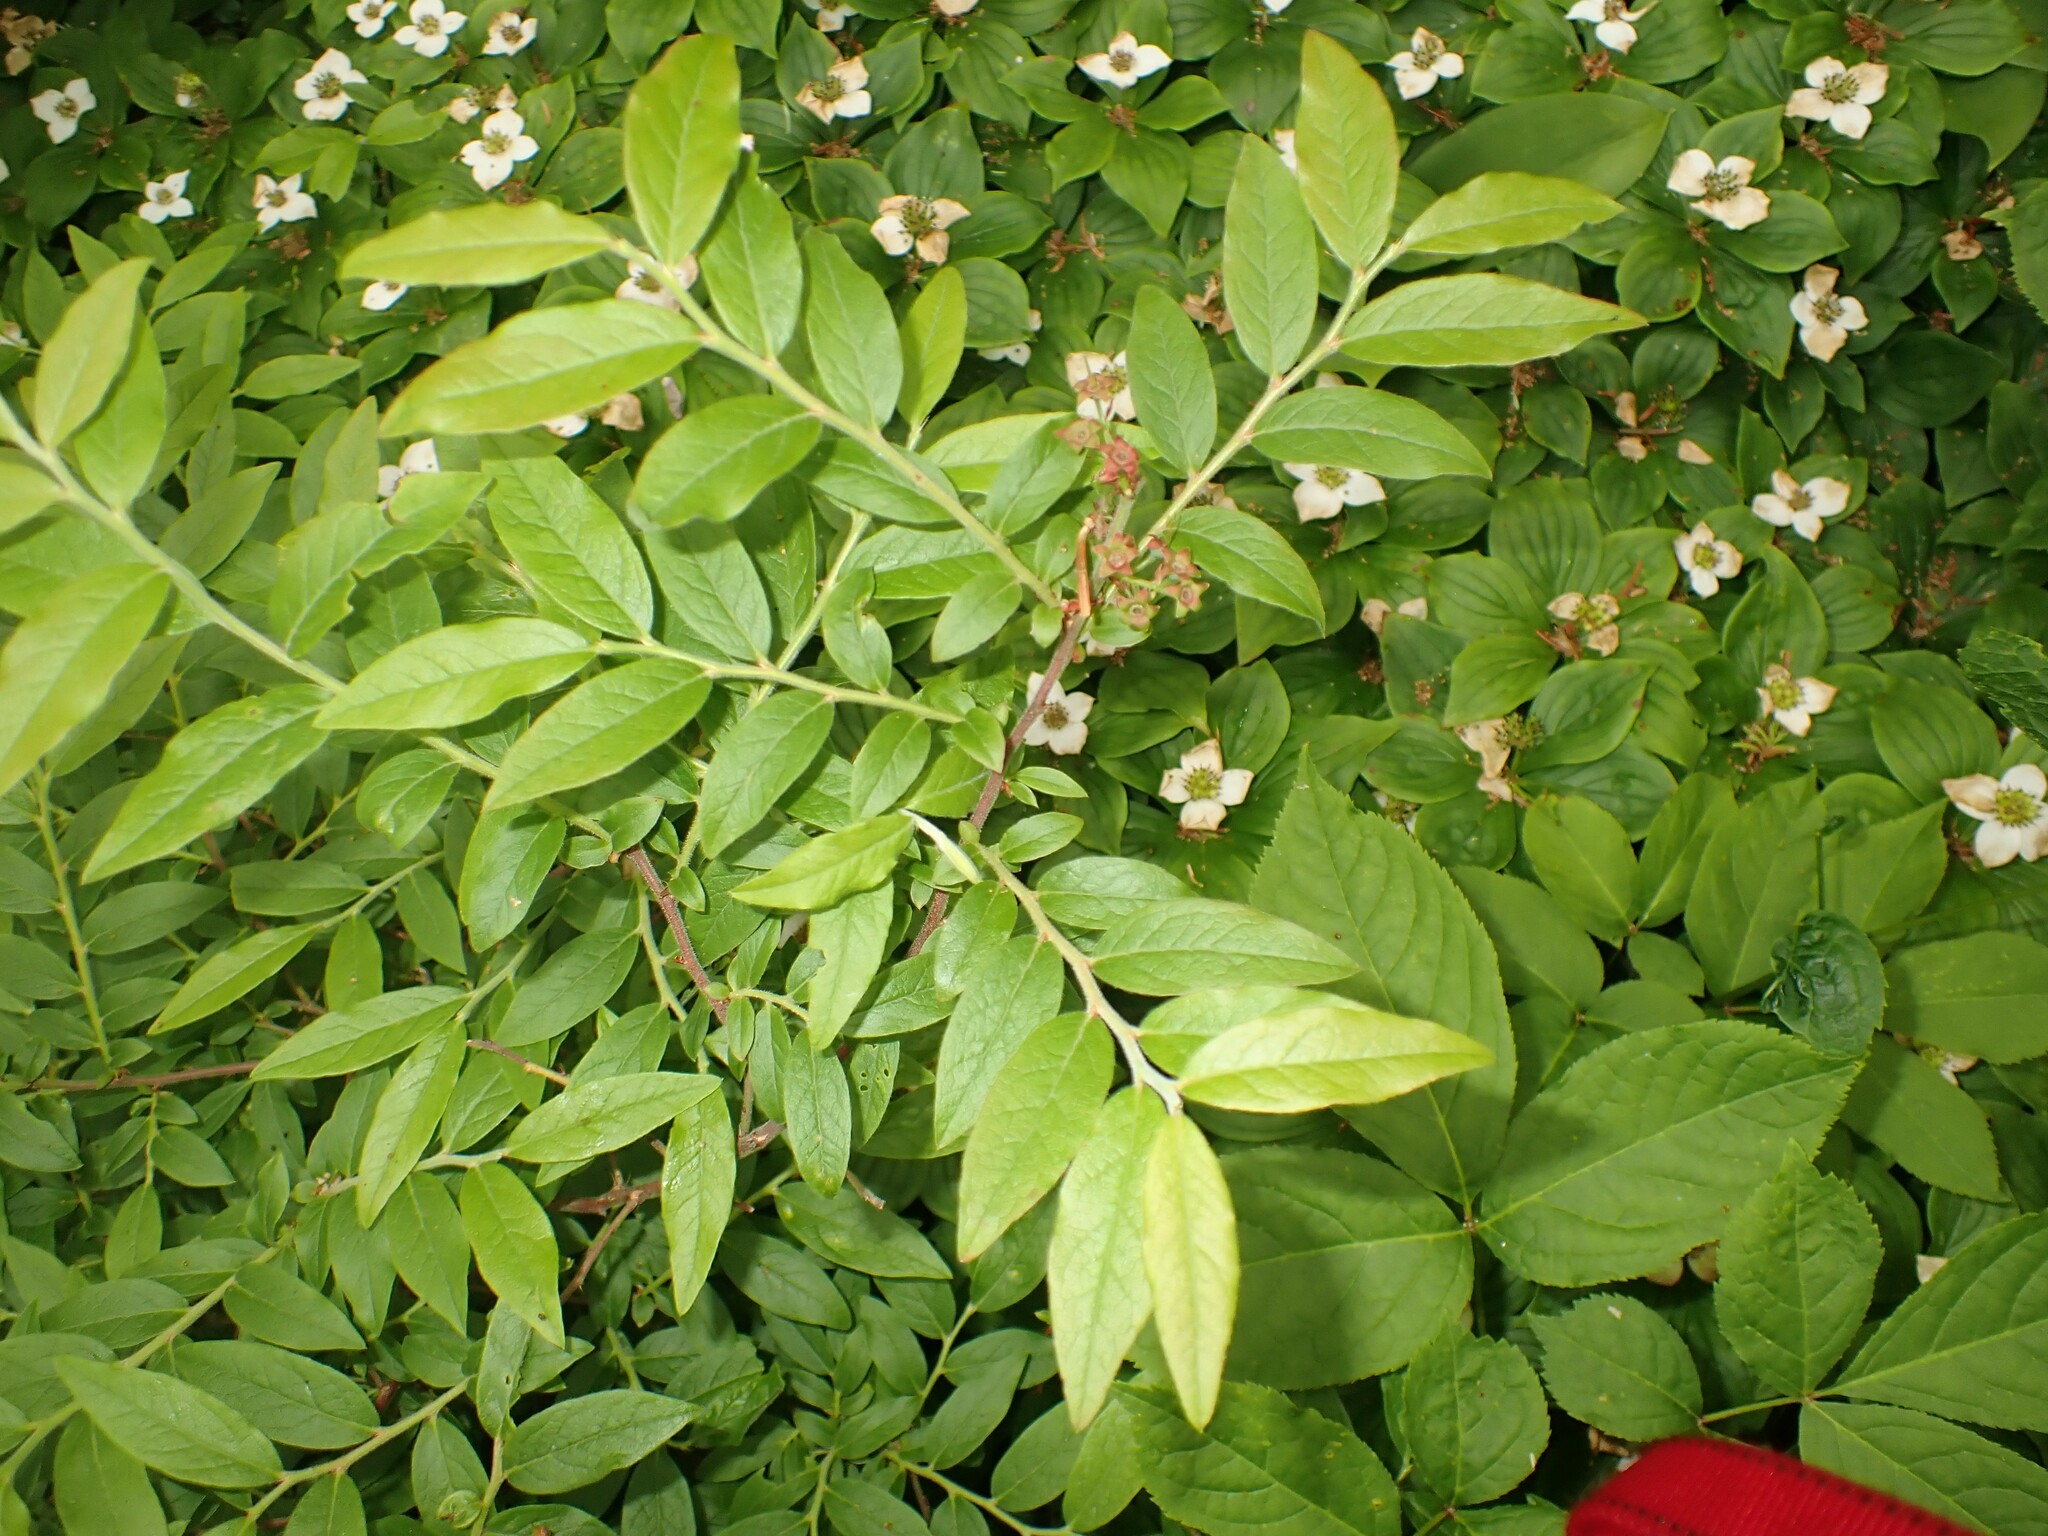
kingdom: Plantae
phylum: Tracheophyta
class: Magnoliopsida
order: Ericales
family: Ericaceae
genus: Vaccinium
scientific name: Vaccinium myrtilloides
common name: Canada blueberry
